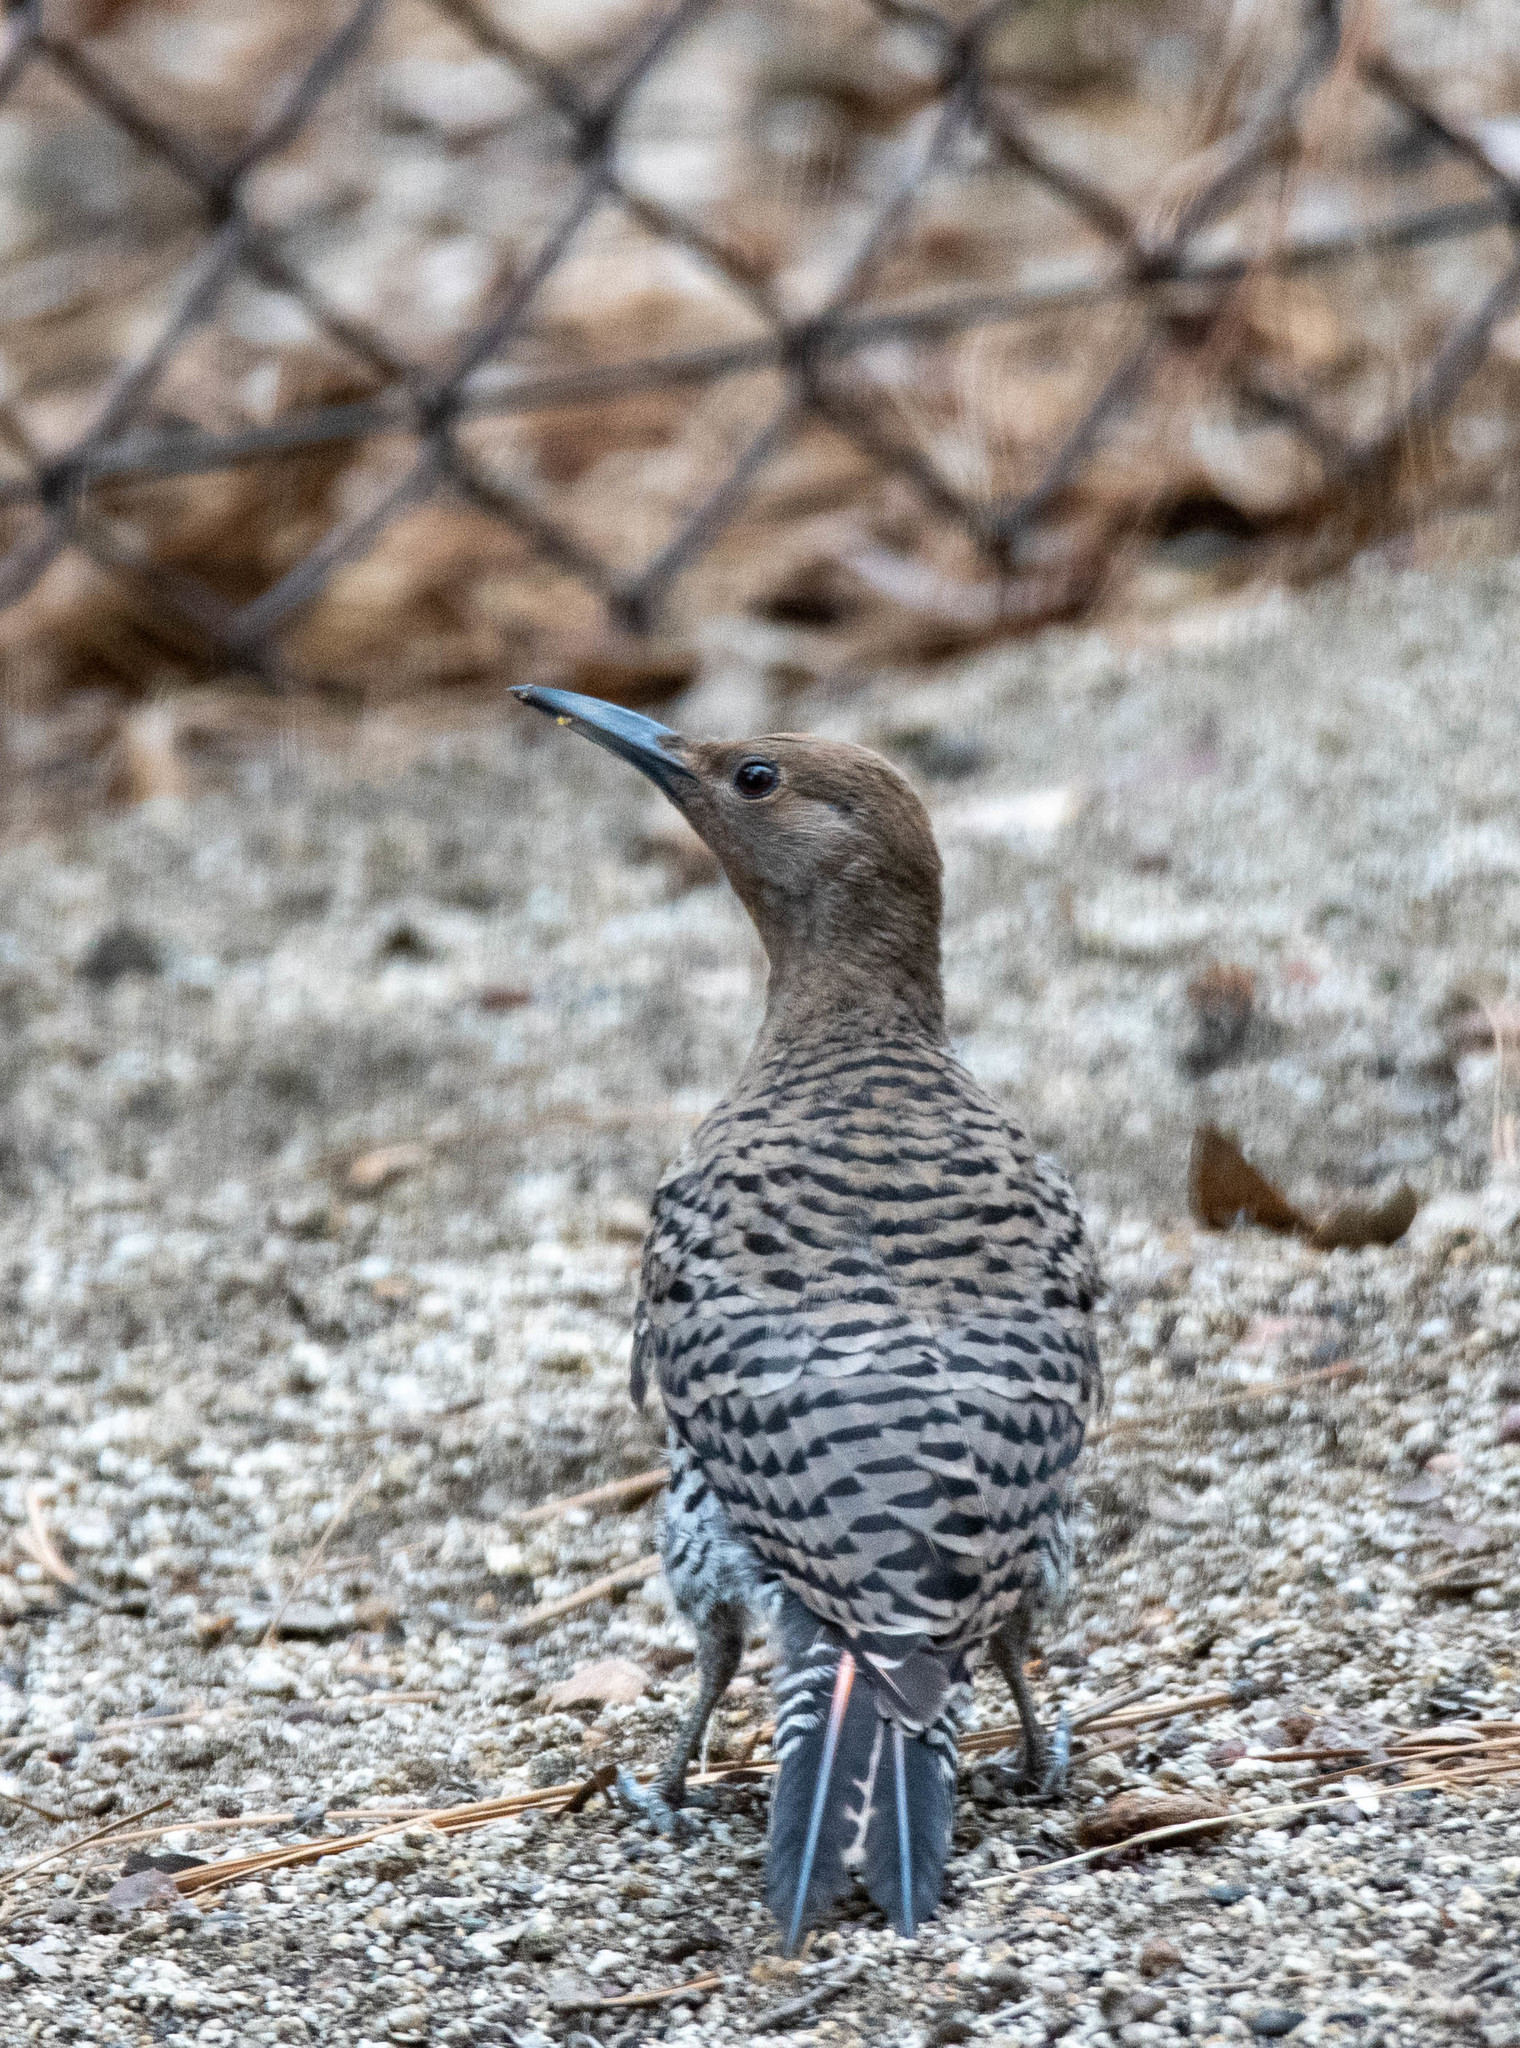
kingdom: Animalia
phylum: Chordata
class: Aves
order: Piciformes
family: Picidae
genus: Colaptes
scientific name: Colaptes auratus
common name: Northern flicker
